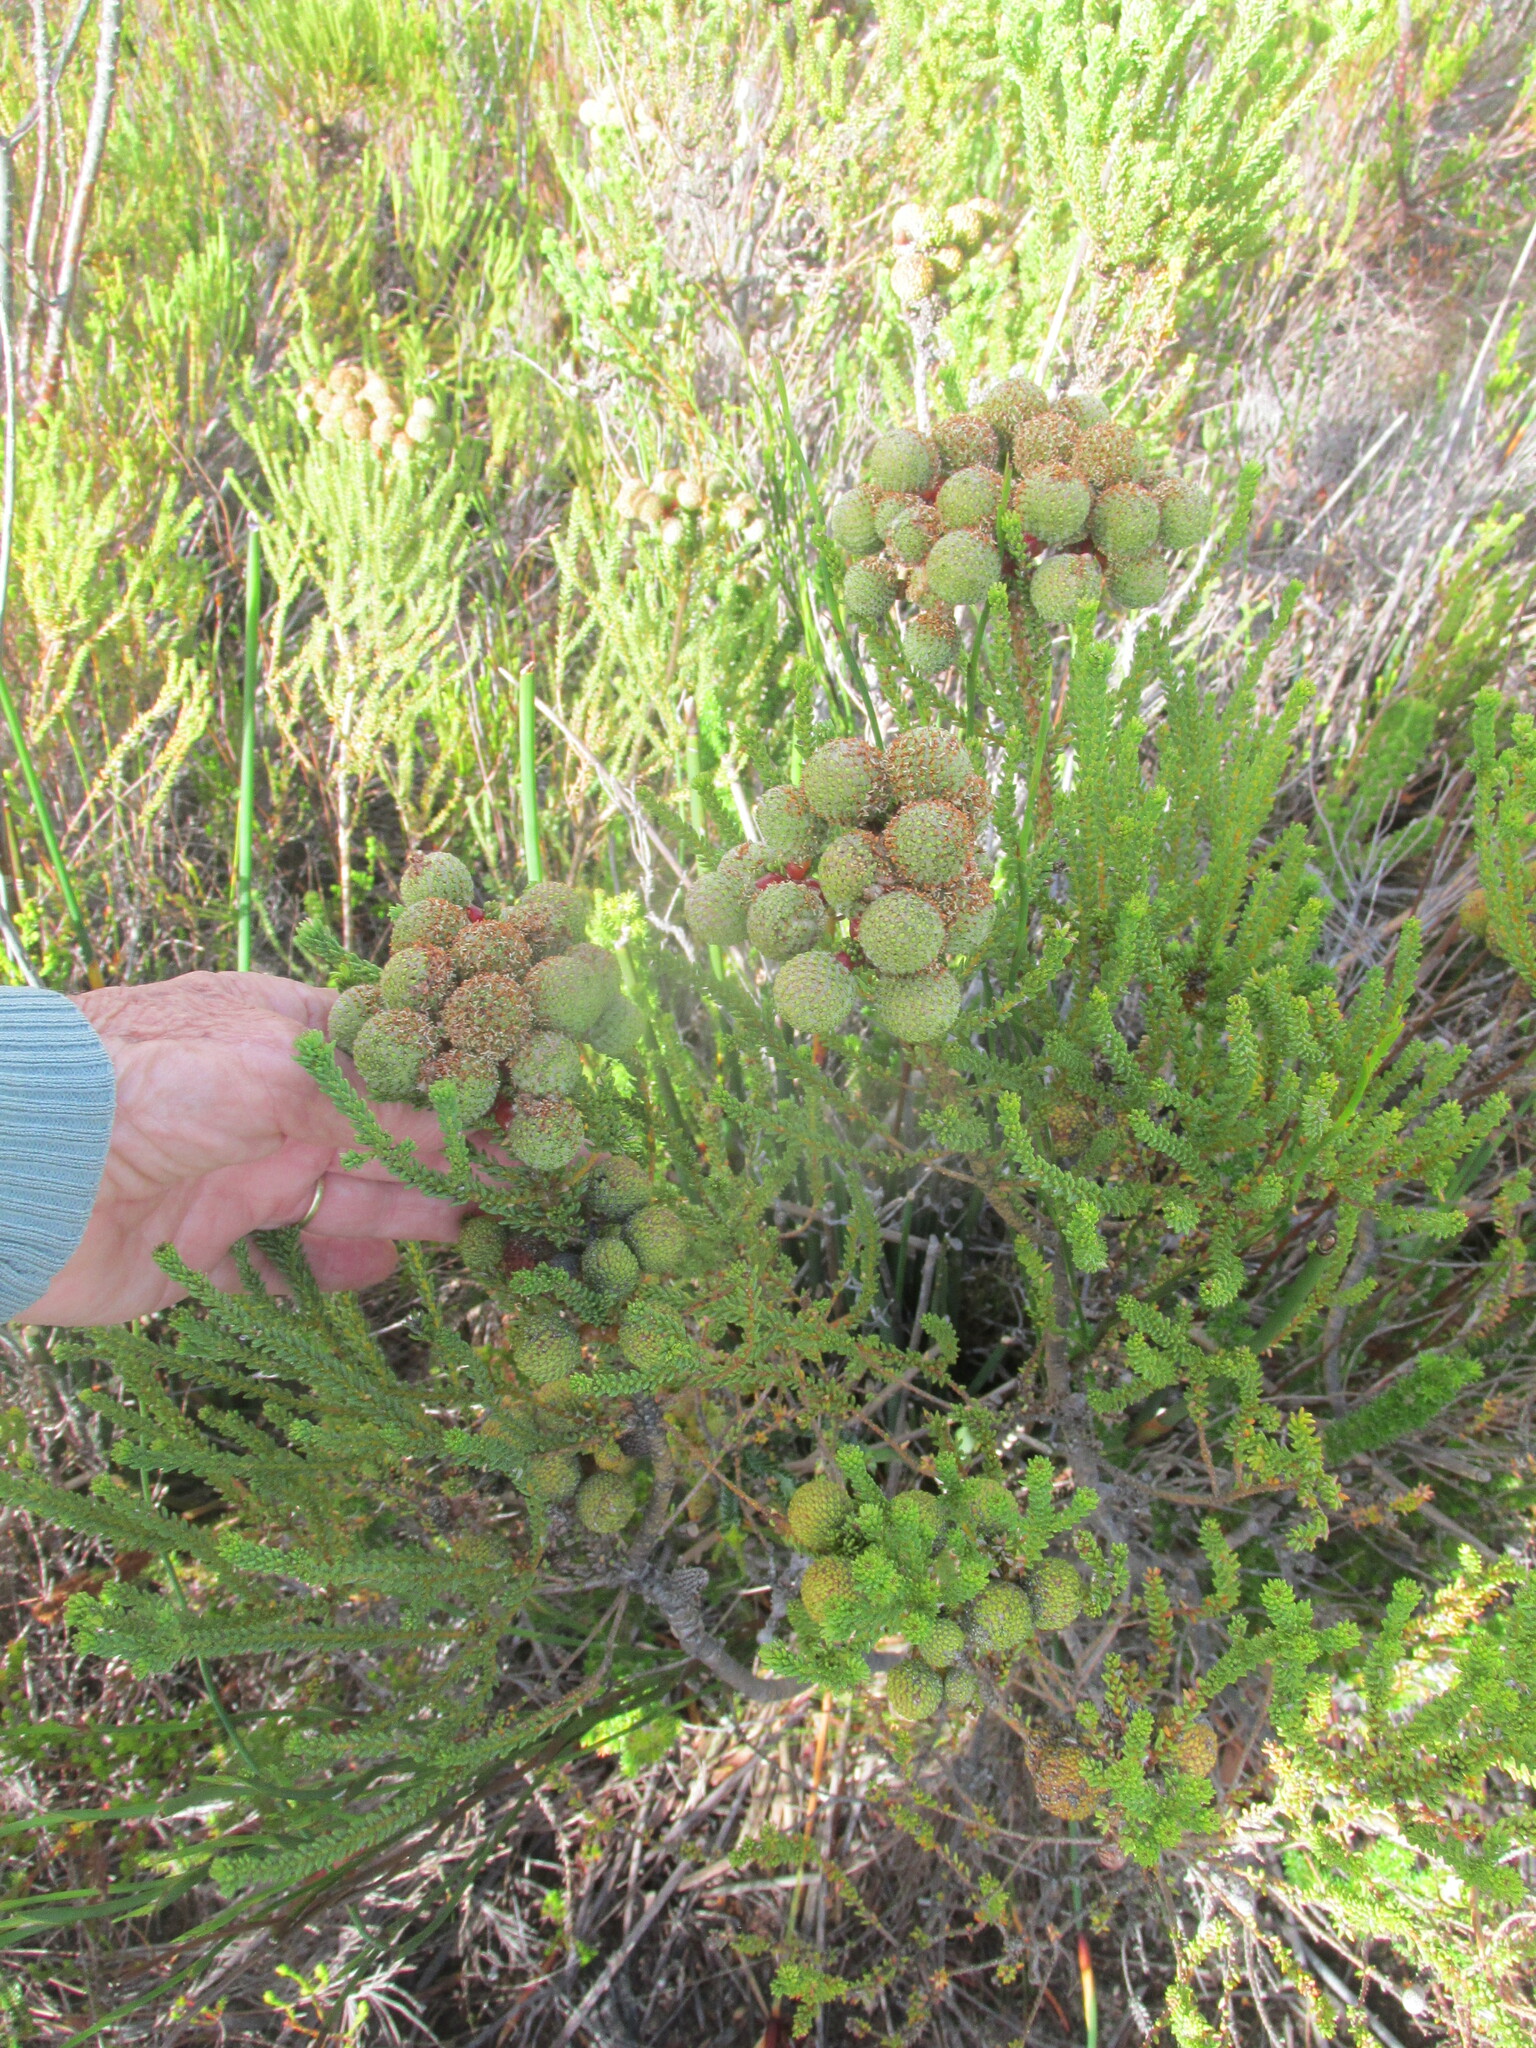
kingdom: Plantae
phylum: Tracheophyta
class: Magnoliopsida
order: Bruniales
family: Bruniaceae
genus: Berzelia
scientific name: Berzelia abrotanoides
